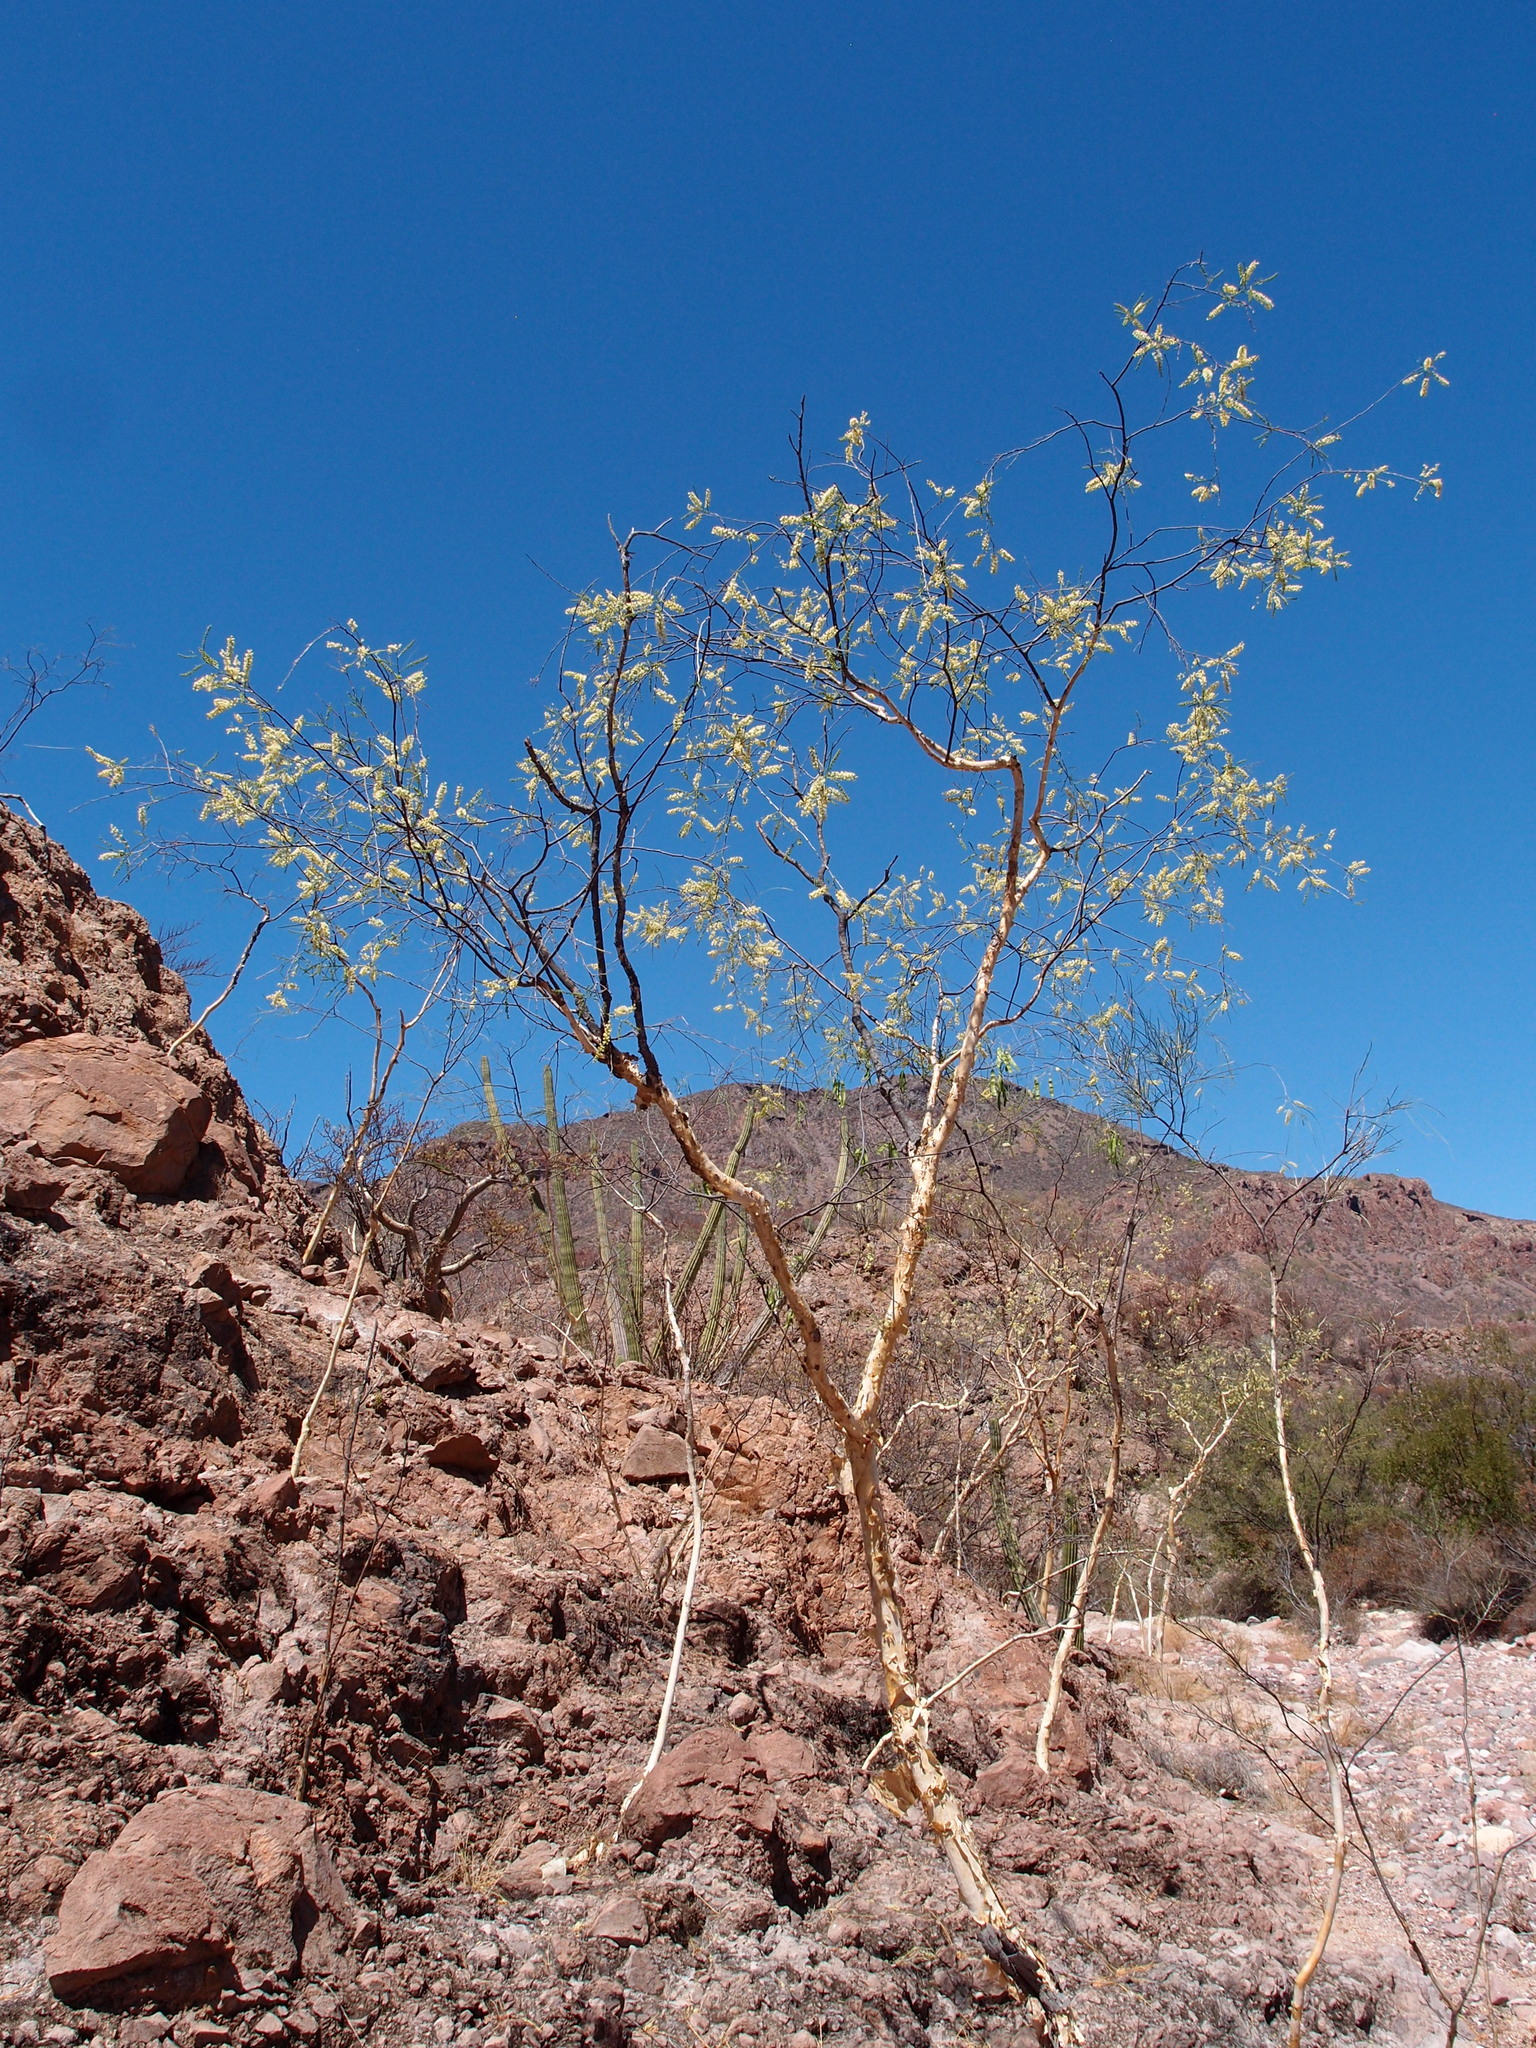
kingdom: Plantae
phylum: Tracheophyta
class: Magnoliopsida
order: Fabales
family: Fabaceae
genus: Mariosousa
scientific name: Mariosousa heterophylla
